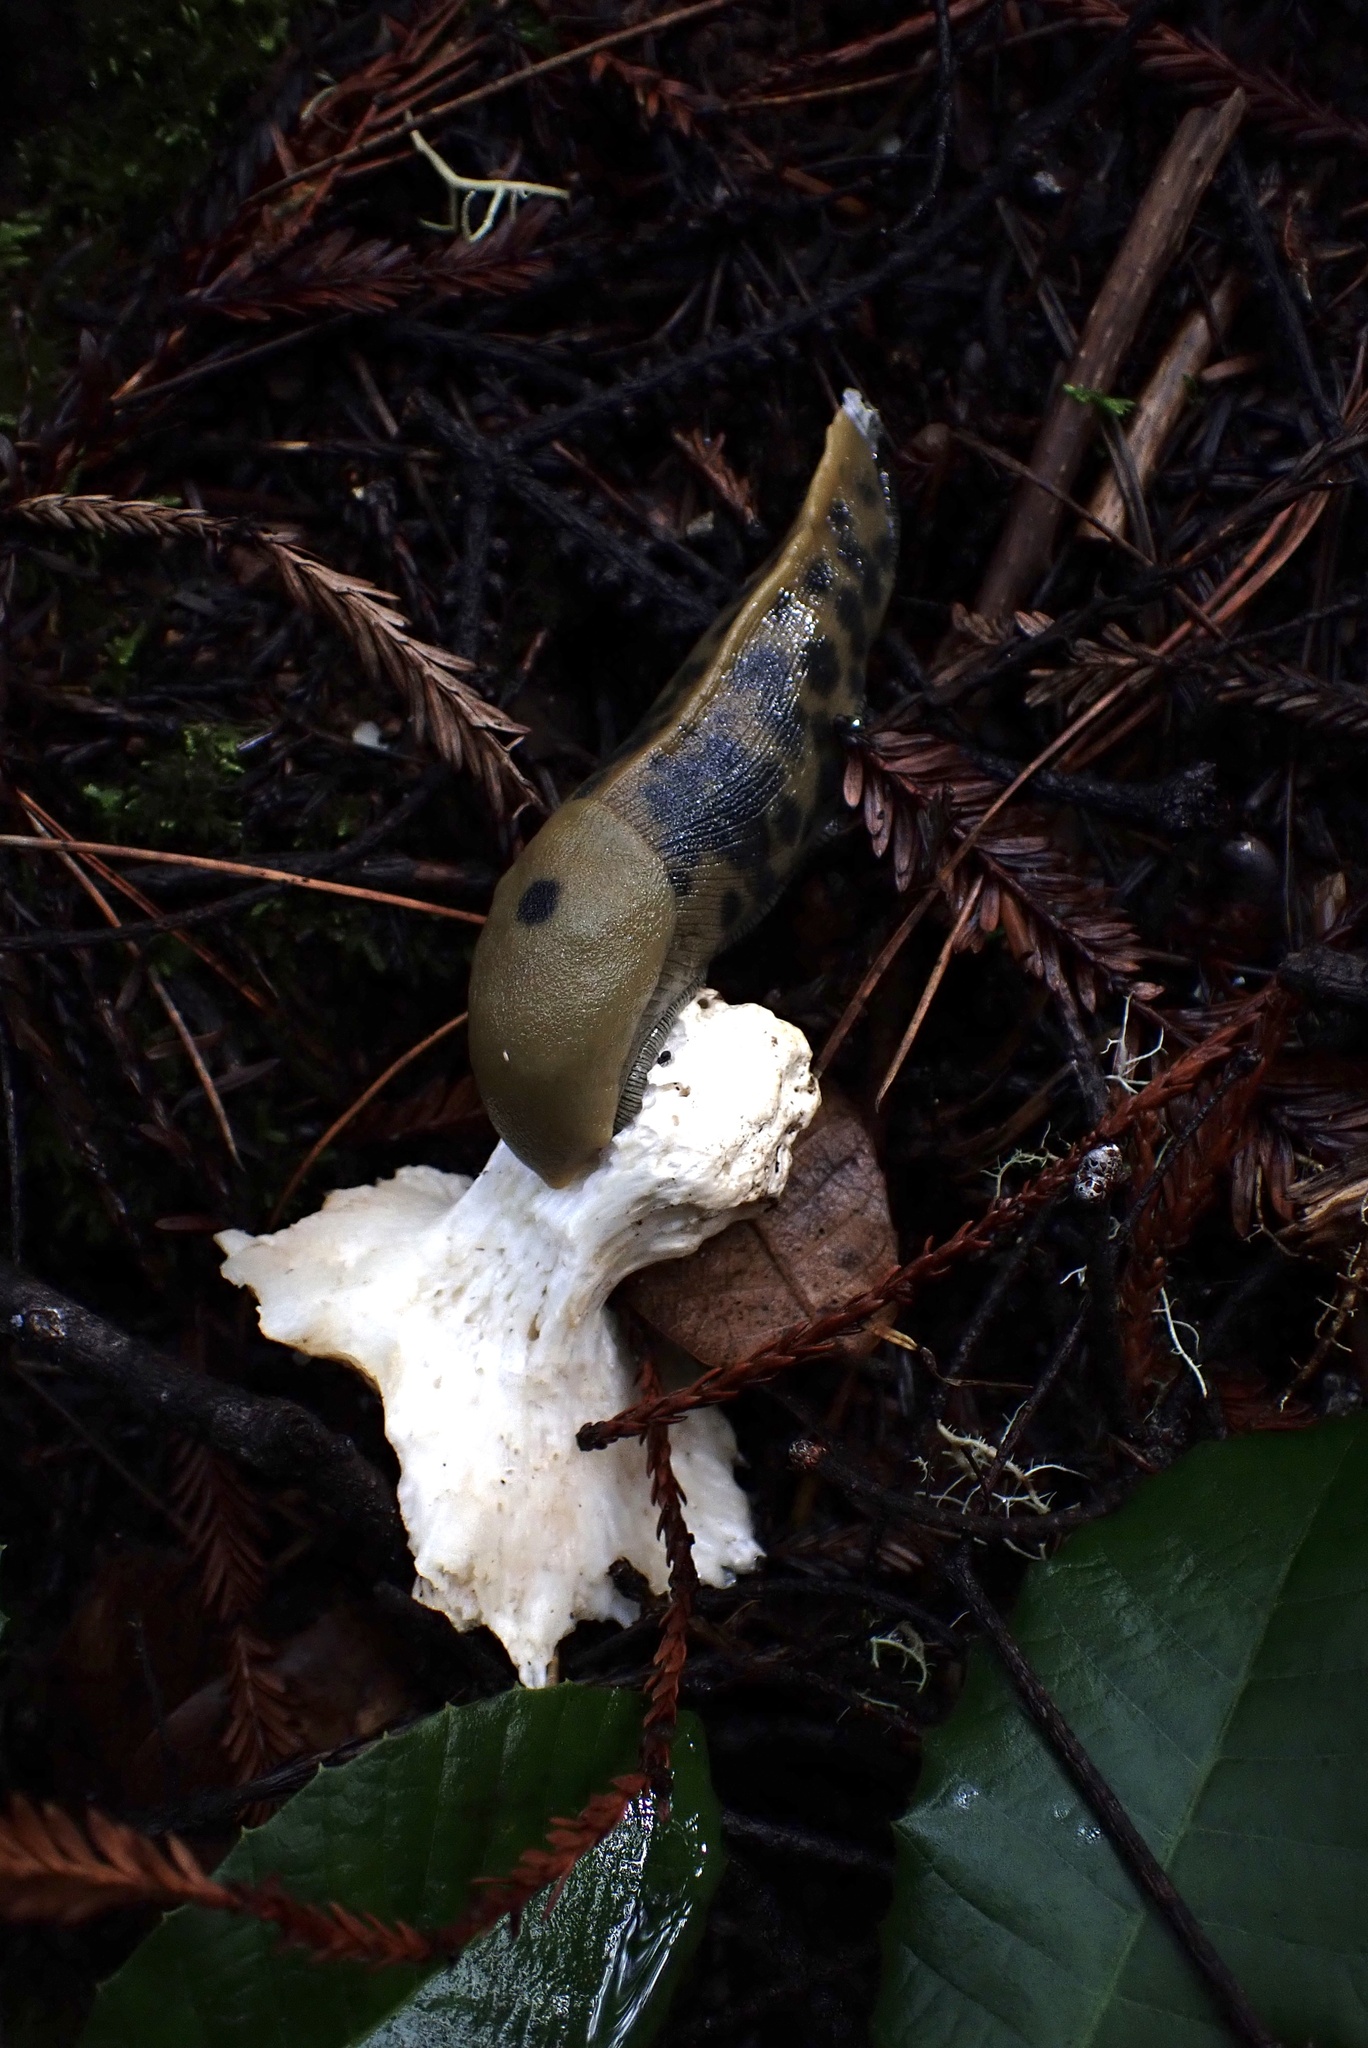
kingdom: Animalia
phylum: Mollusca
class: Gastropoda
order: Stylommatophora
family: Ariolimacidae
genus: Ariolimax
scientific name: Ariolimax buttoni
